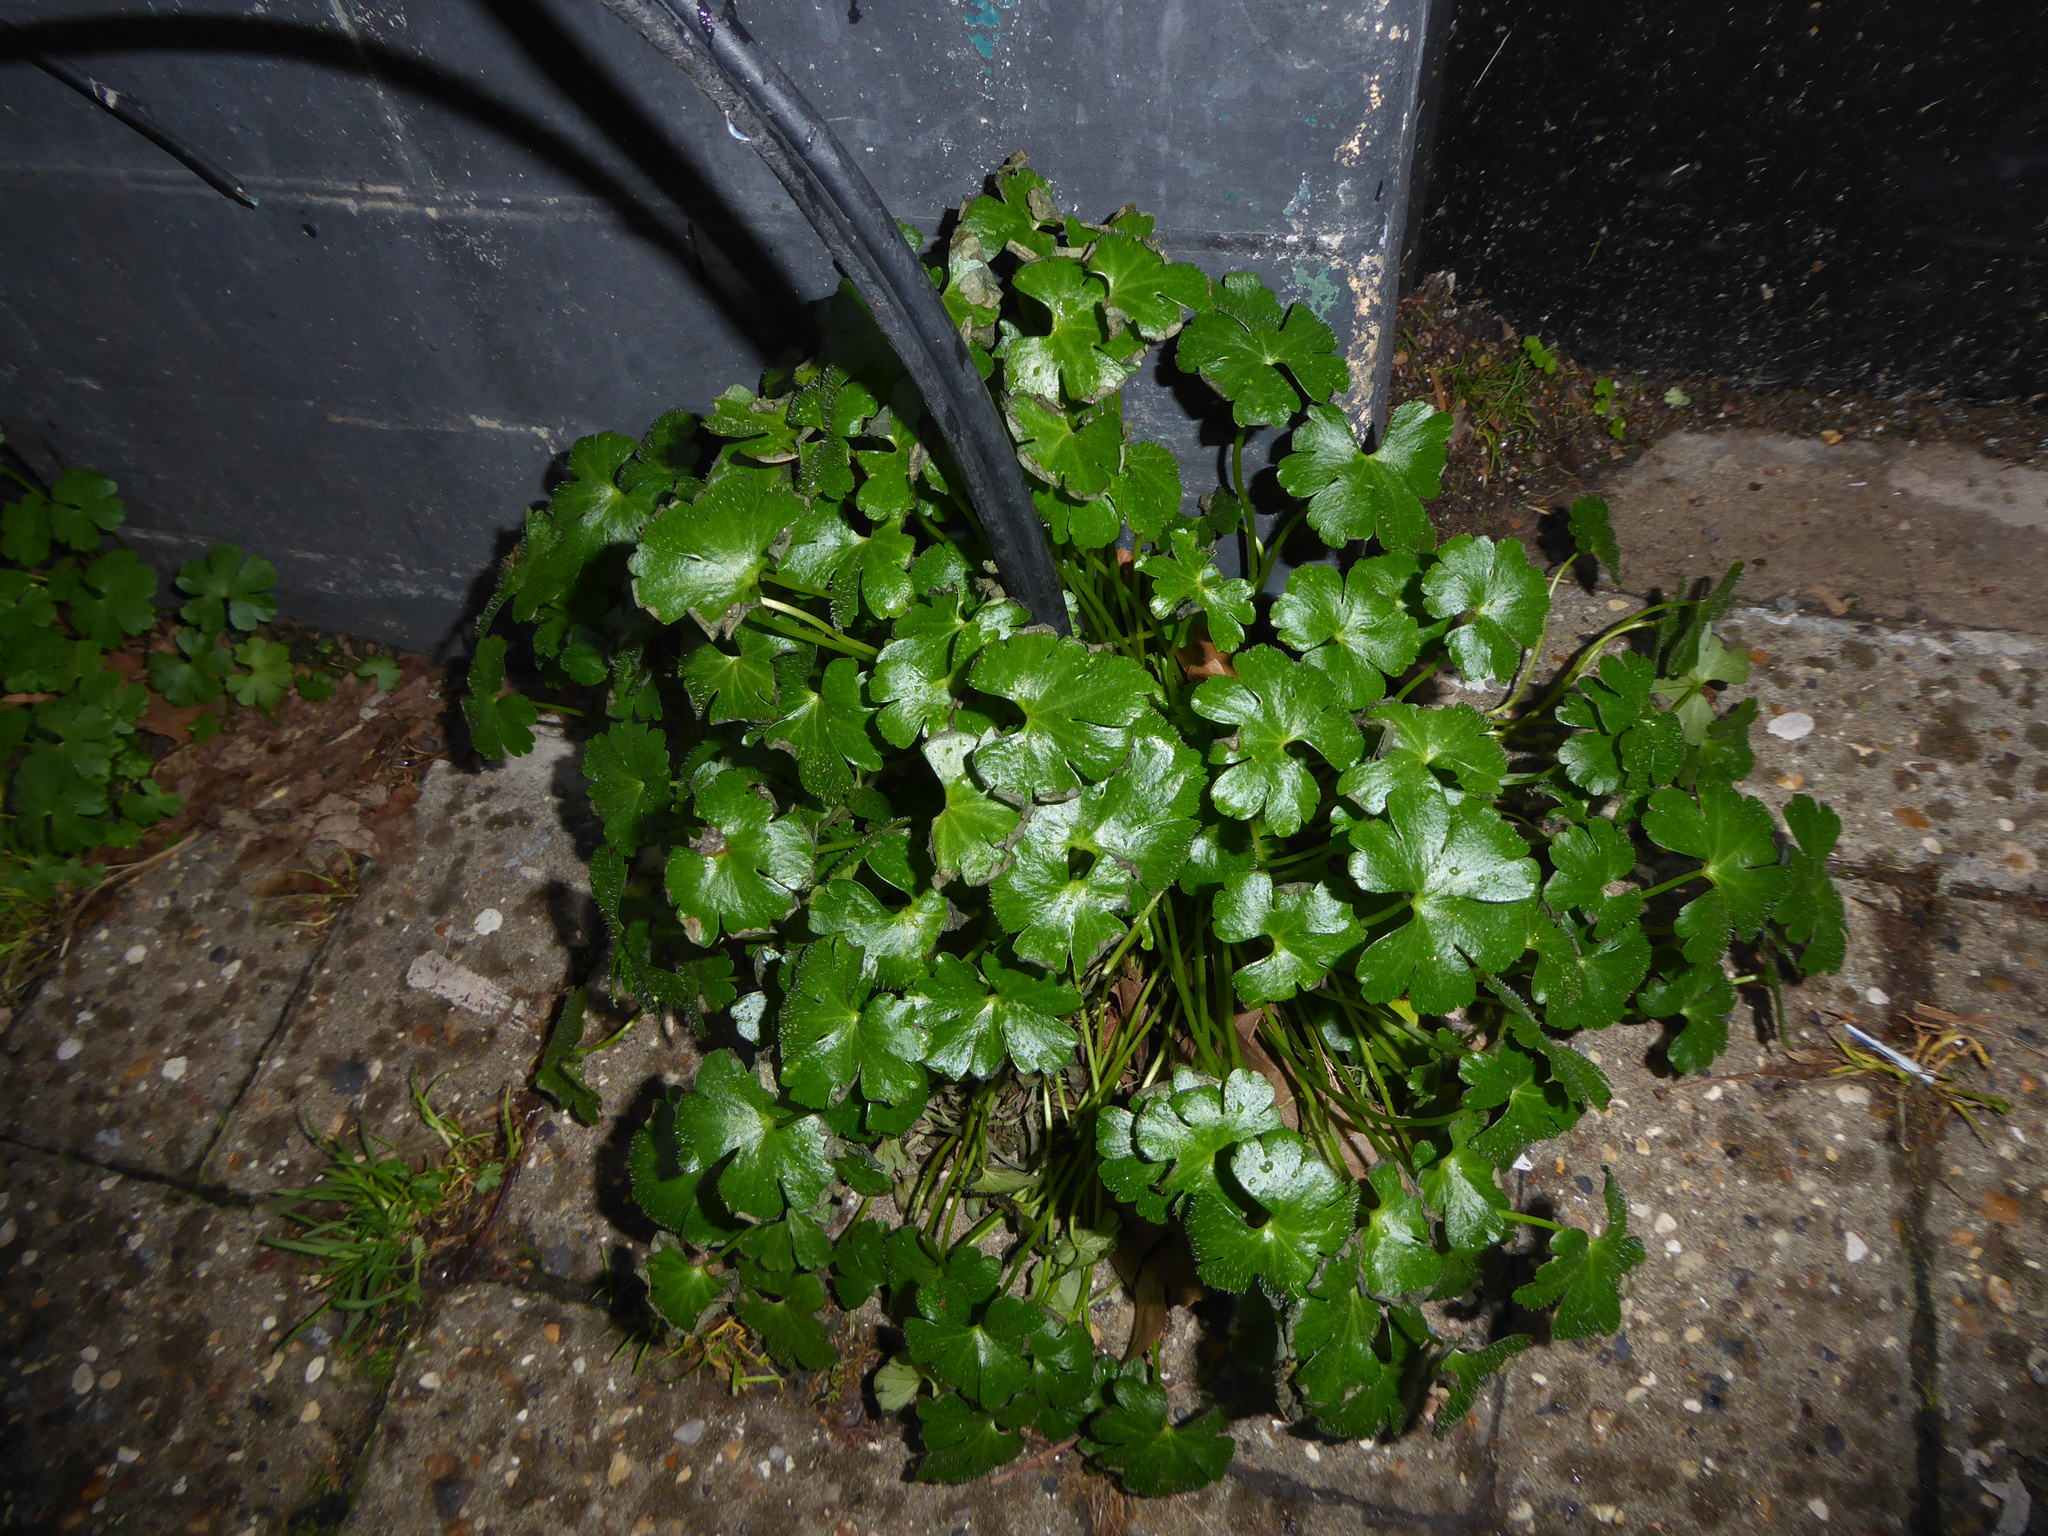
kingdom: Plantae
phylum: Tracheophyta
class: Magnoliopsida
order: Geraniales
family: Geraniaceae
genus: Geranium
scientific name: Geranium lucidum
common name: Shining crane's-bill
